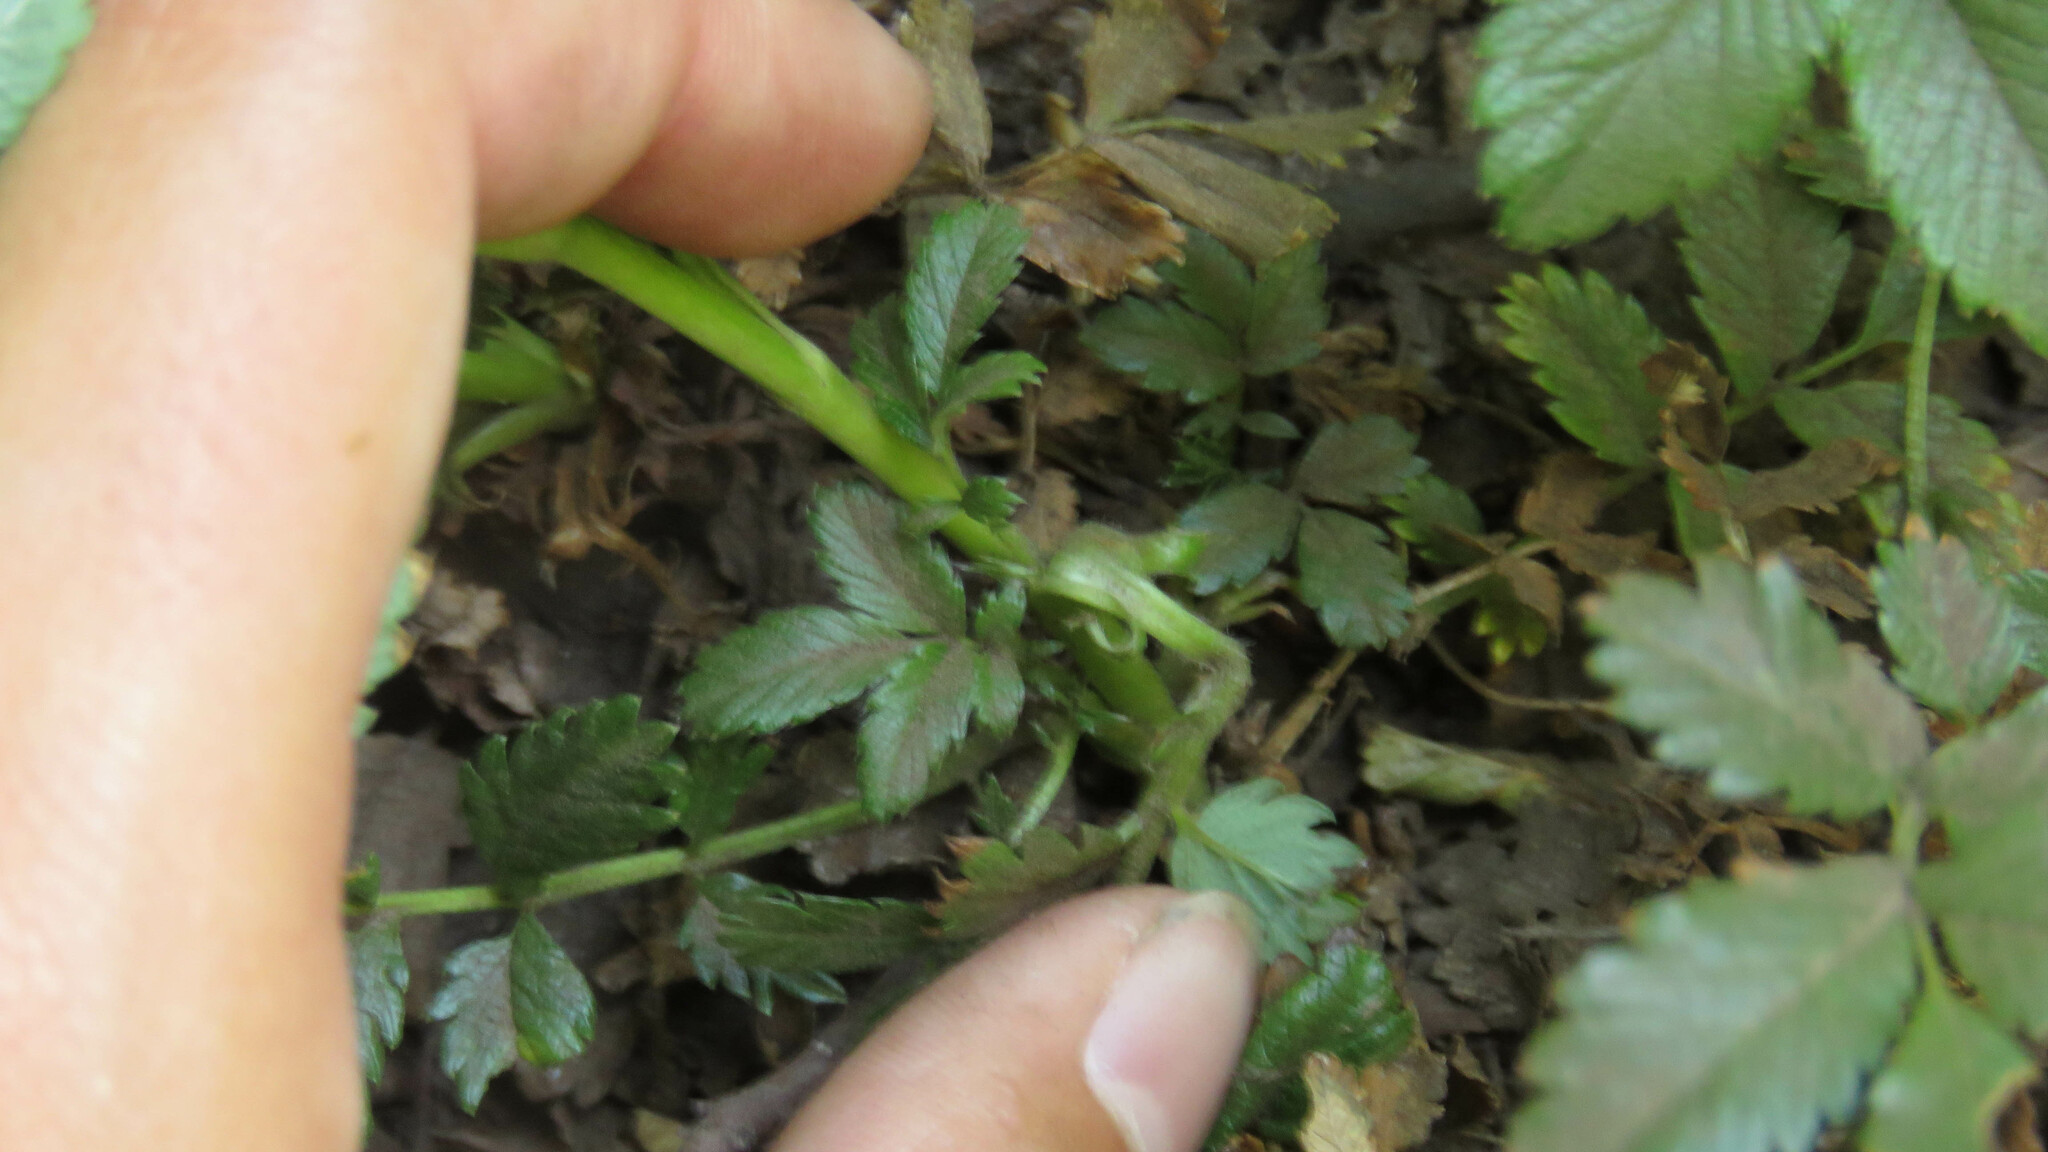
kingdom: Plantae
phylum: Tracheophyta
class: Magnoliopsida
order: Rosales
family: Rosaceae
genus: Acaena
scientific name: Acaena ovalifolia
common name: Two-spined acaena
